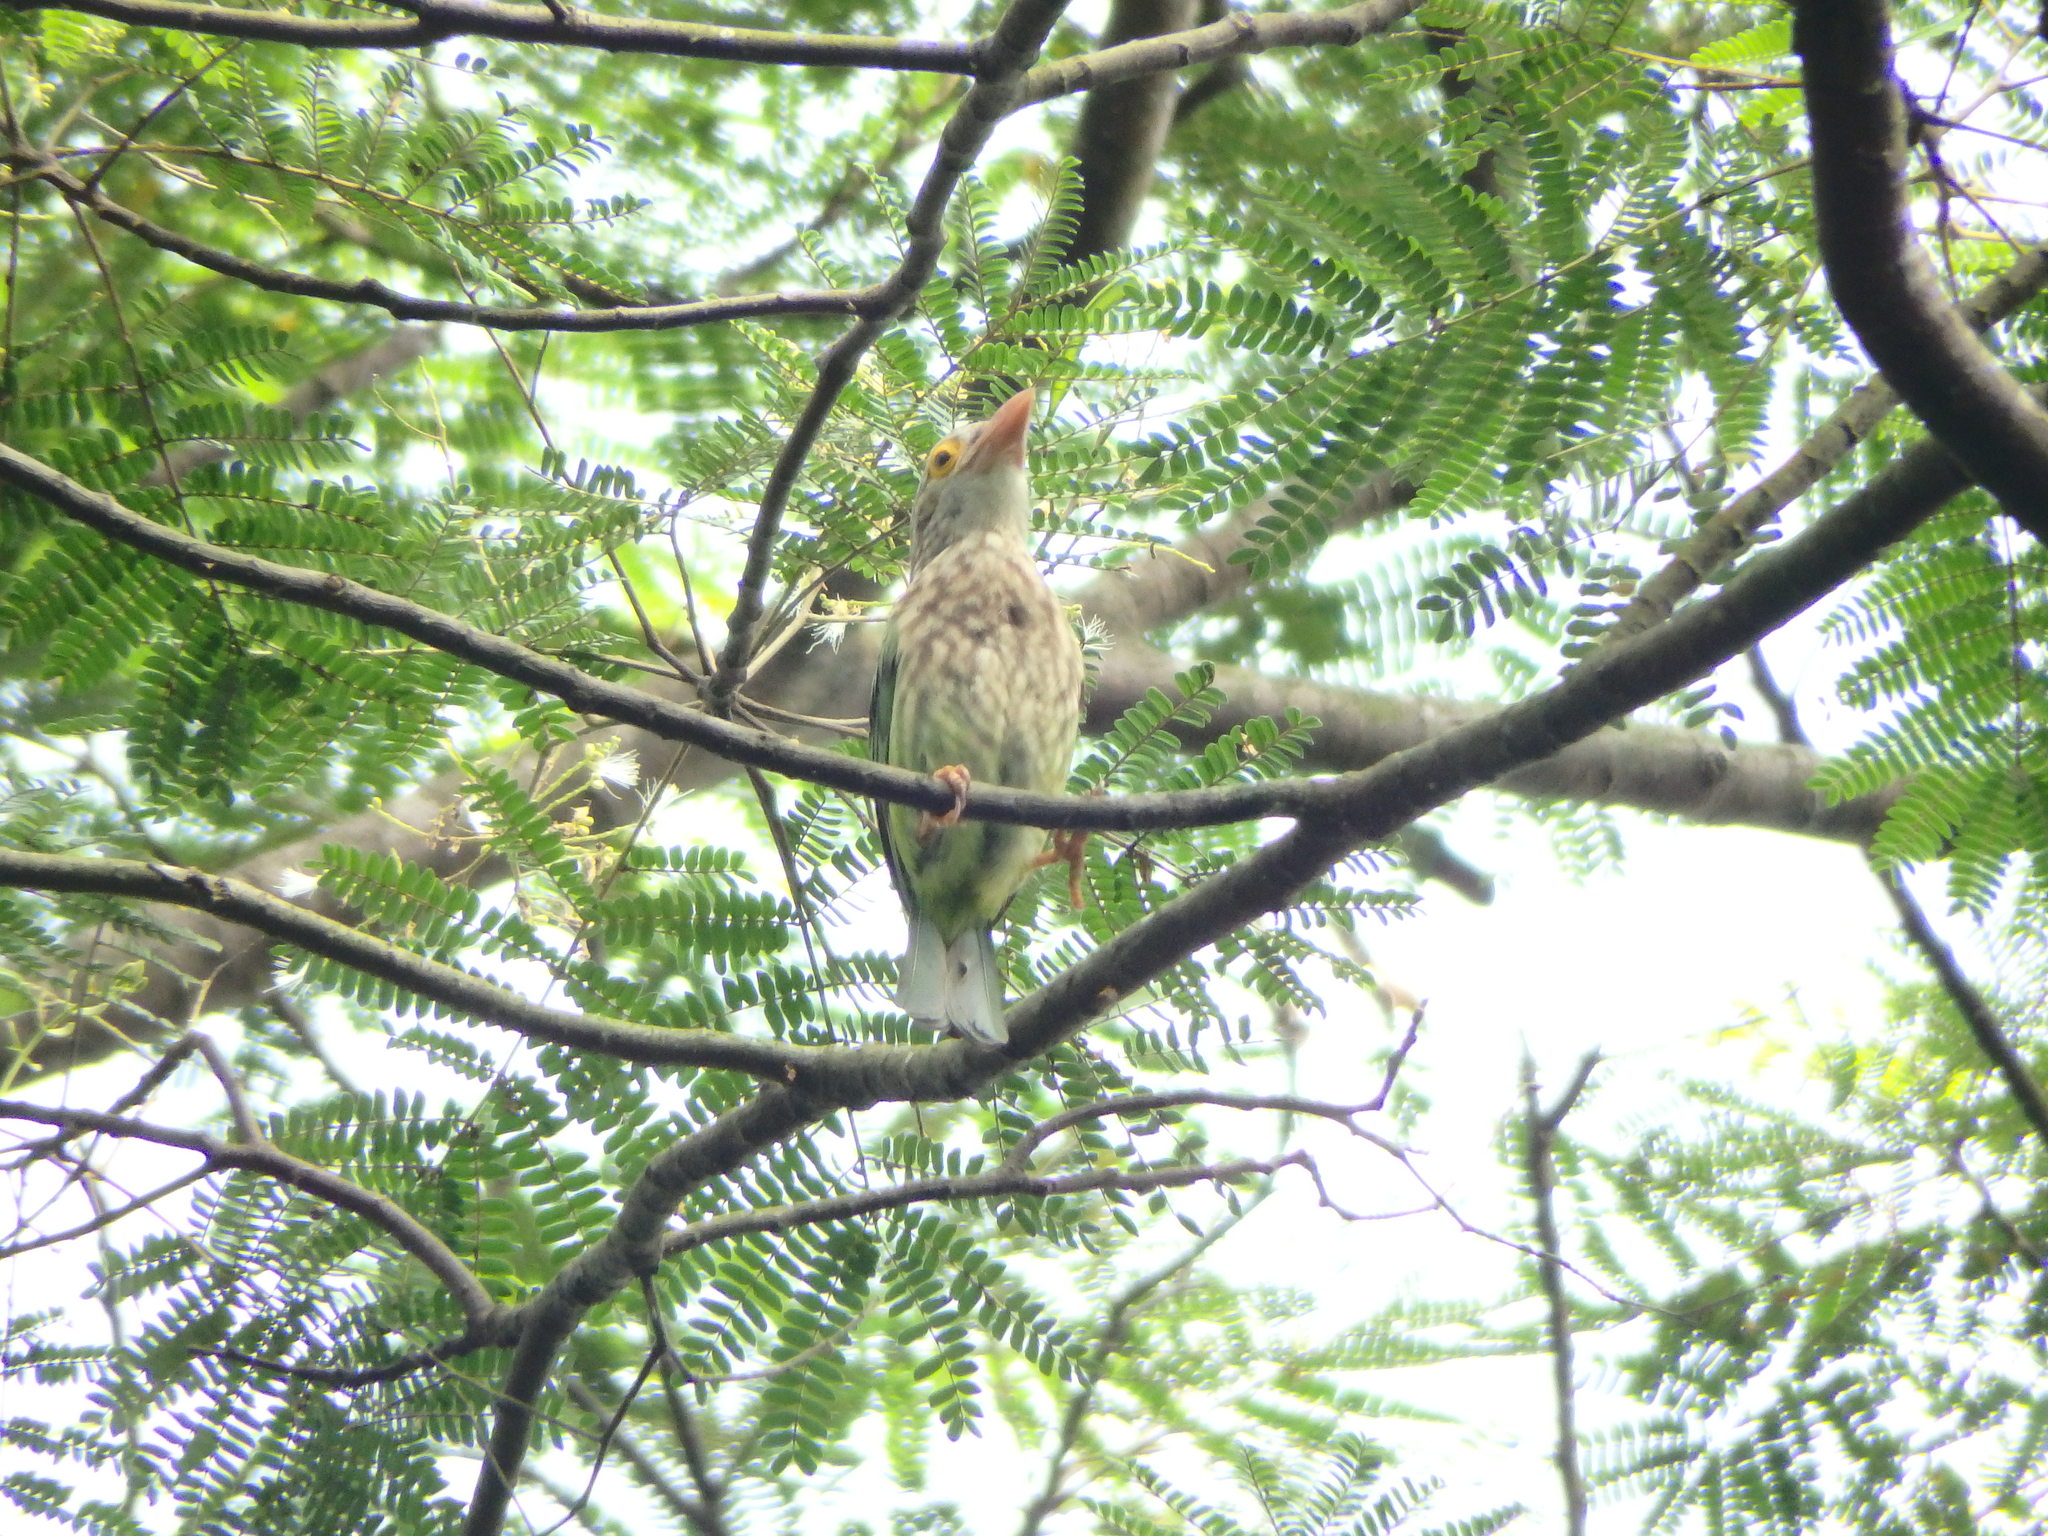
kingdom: Animalia
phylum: Chordata
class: Aves
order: Piciformes
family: Megalaimidae
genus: Psilopogon
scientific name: Psilopogon lineatus
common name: Lineated barbet
